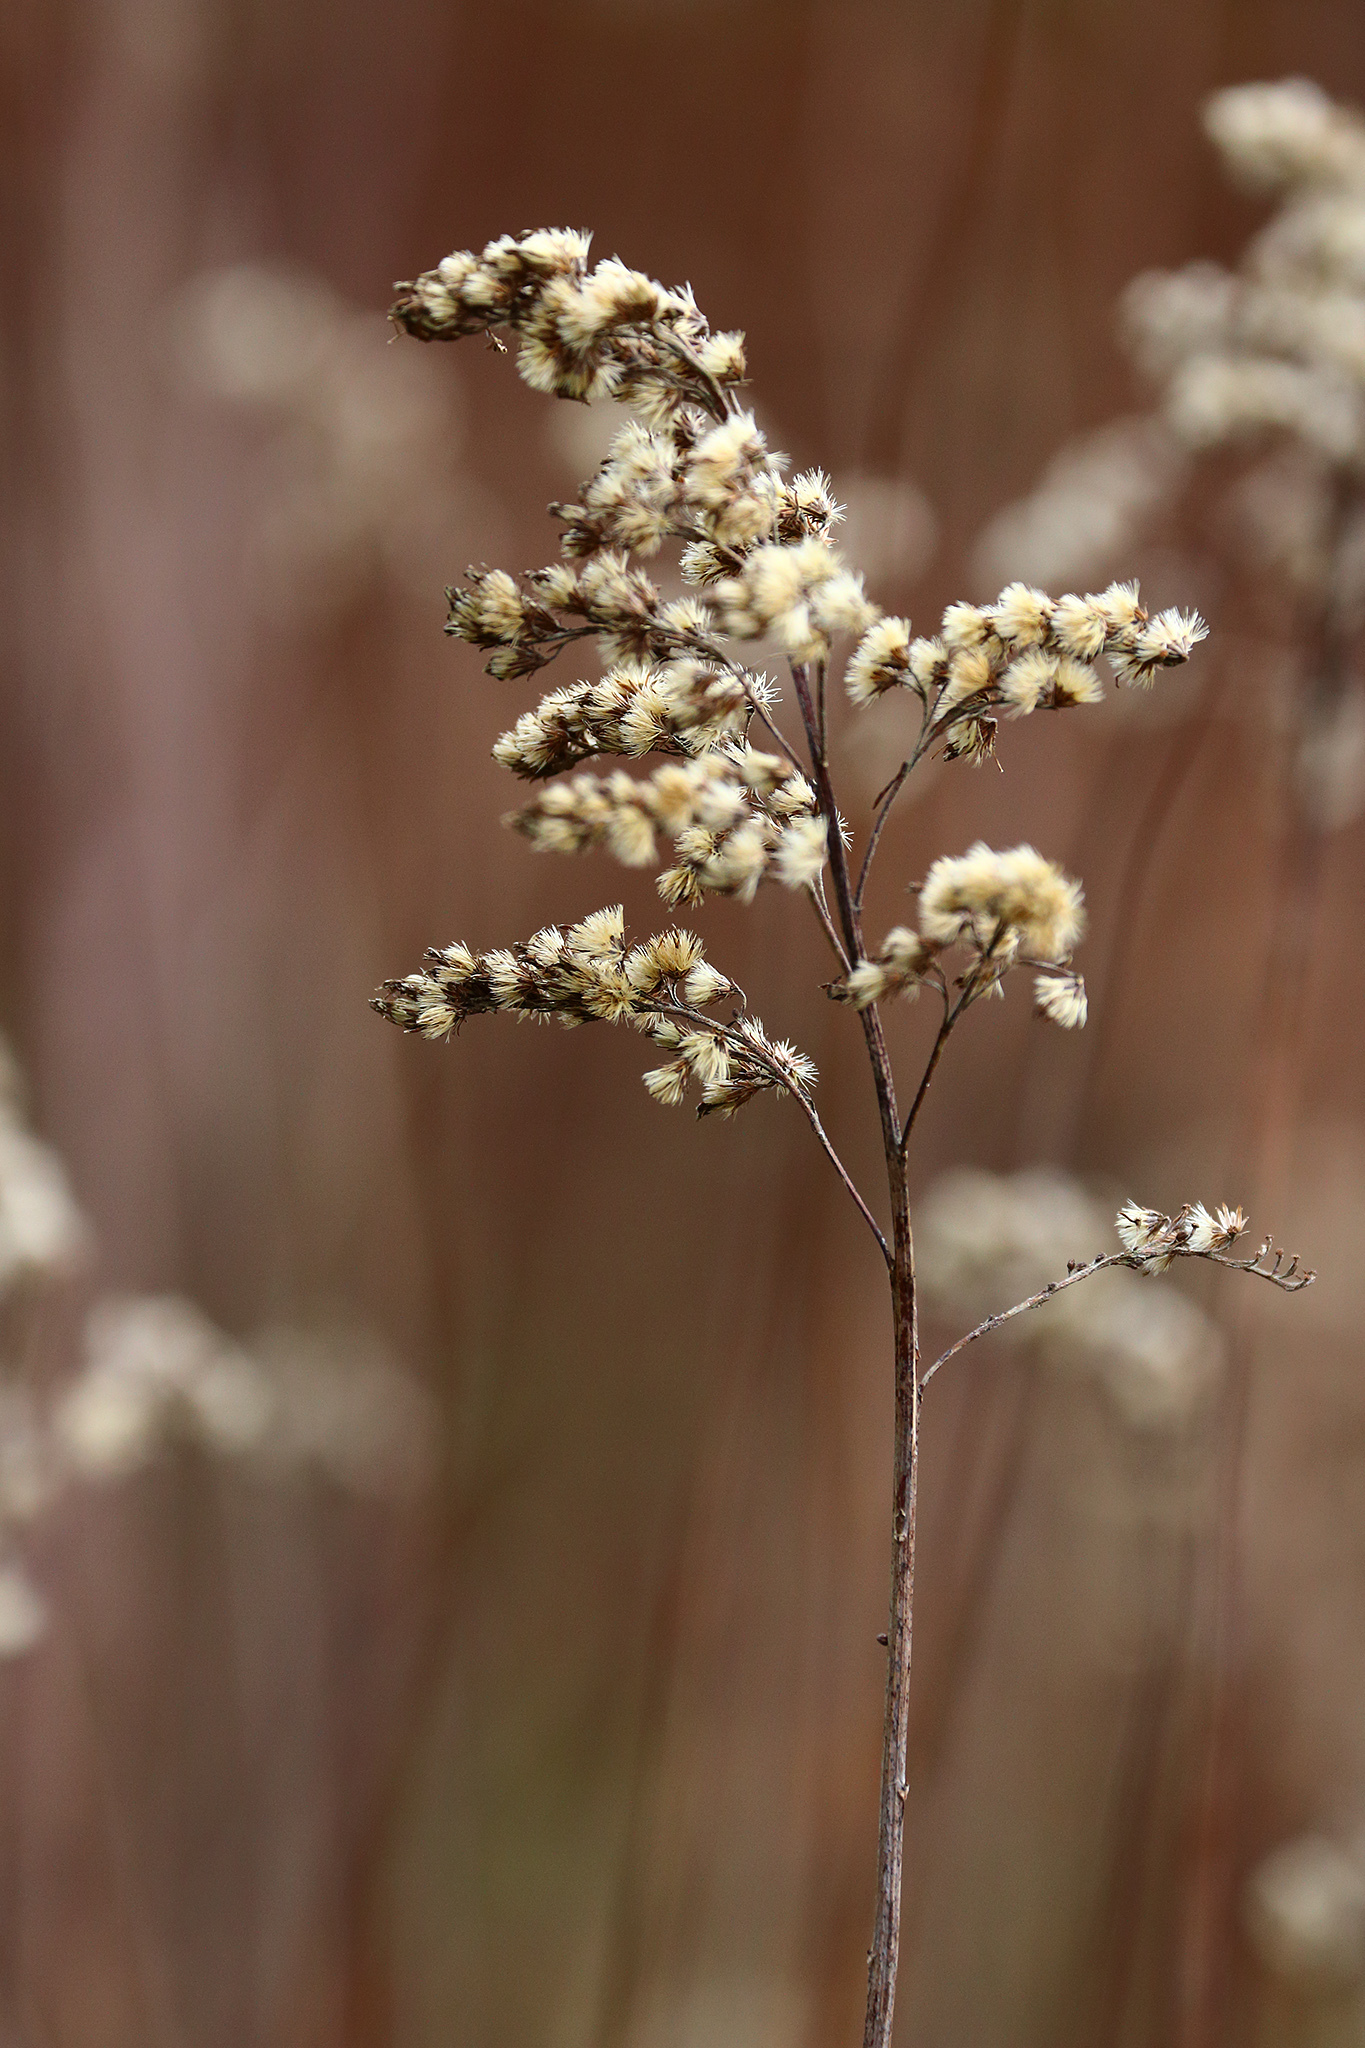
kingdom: Plantae
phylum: Tracheophyta
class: Magnoliopsida
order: Asterales
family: Asteraceae
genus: Solidago
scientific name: Solidago canadensis
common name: Canada goldenrod
